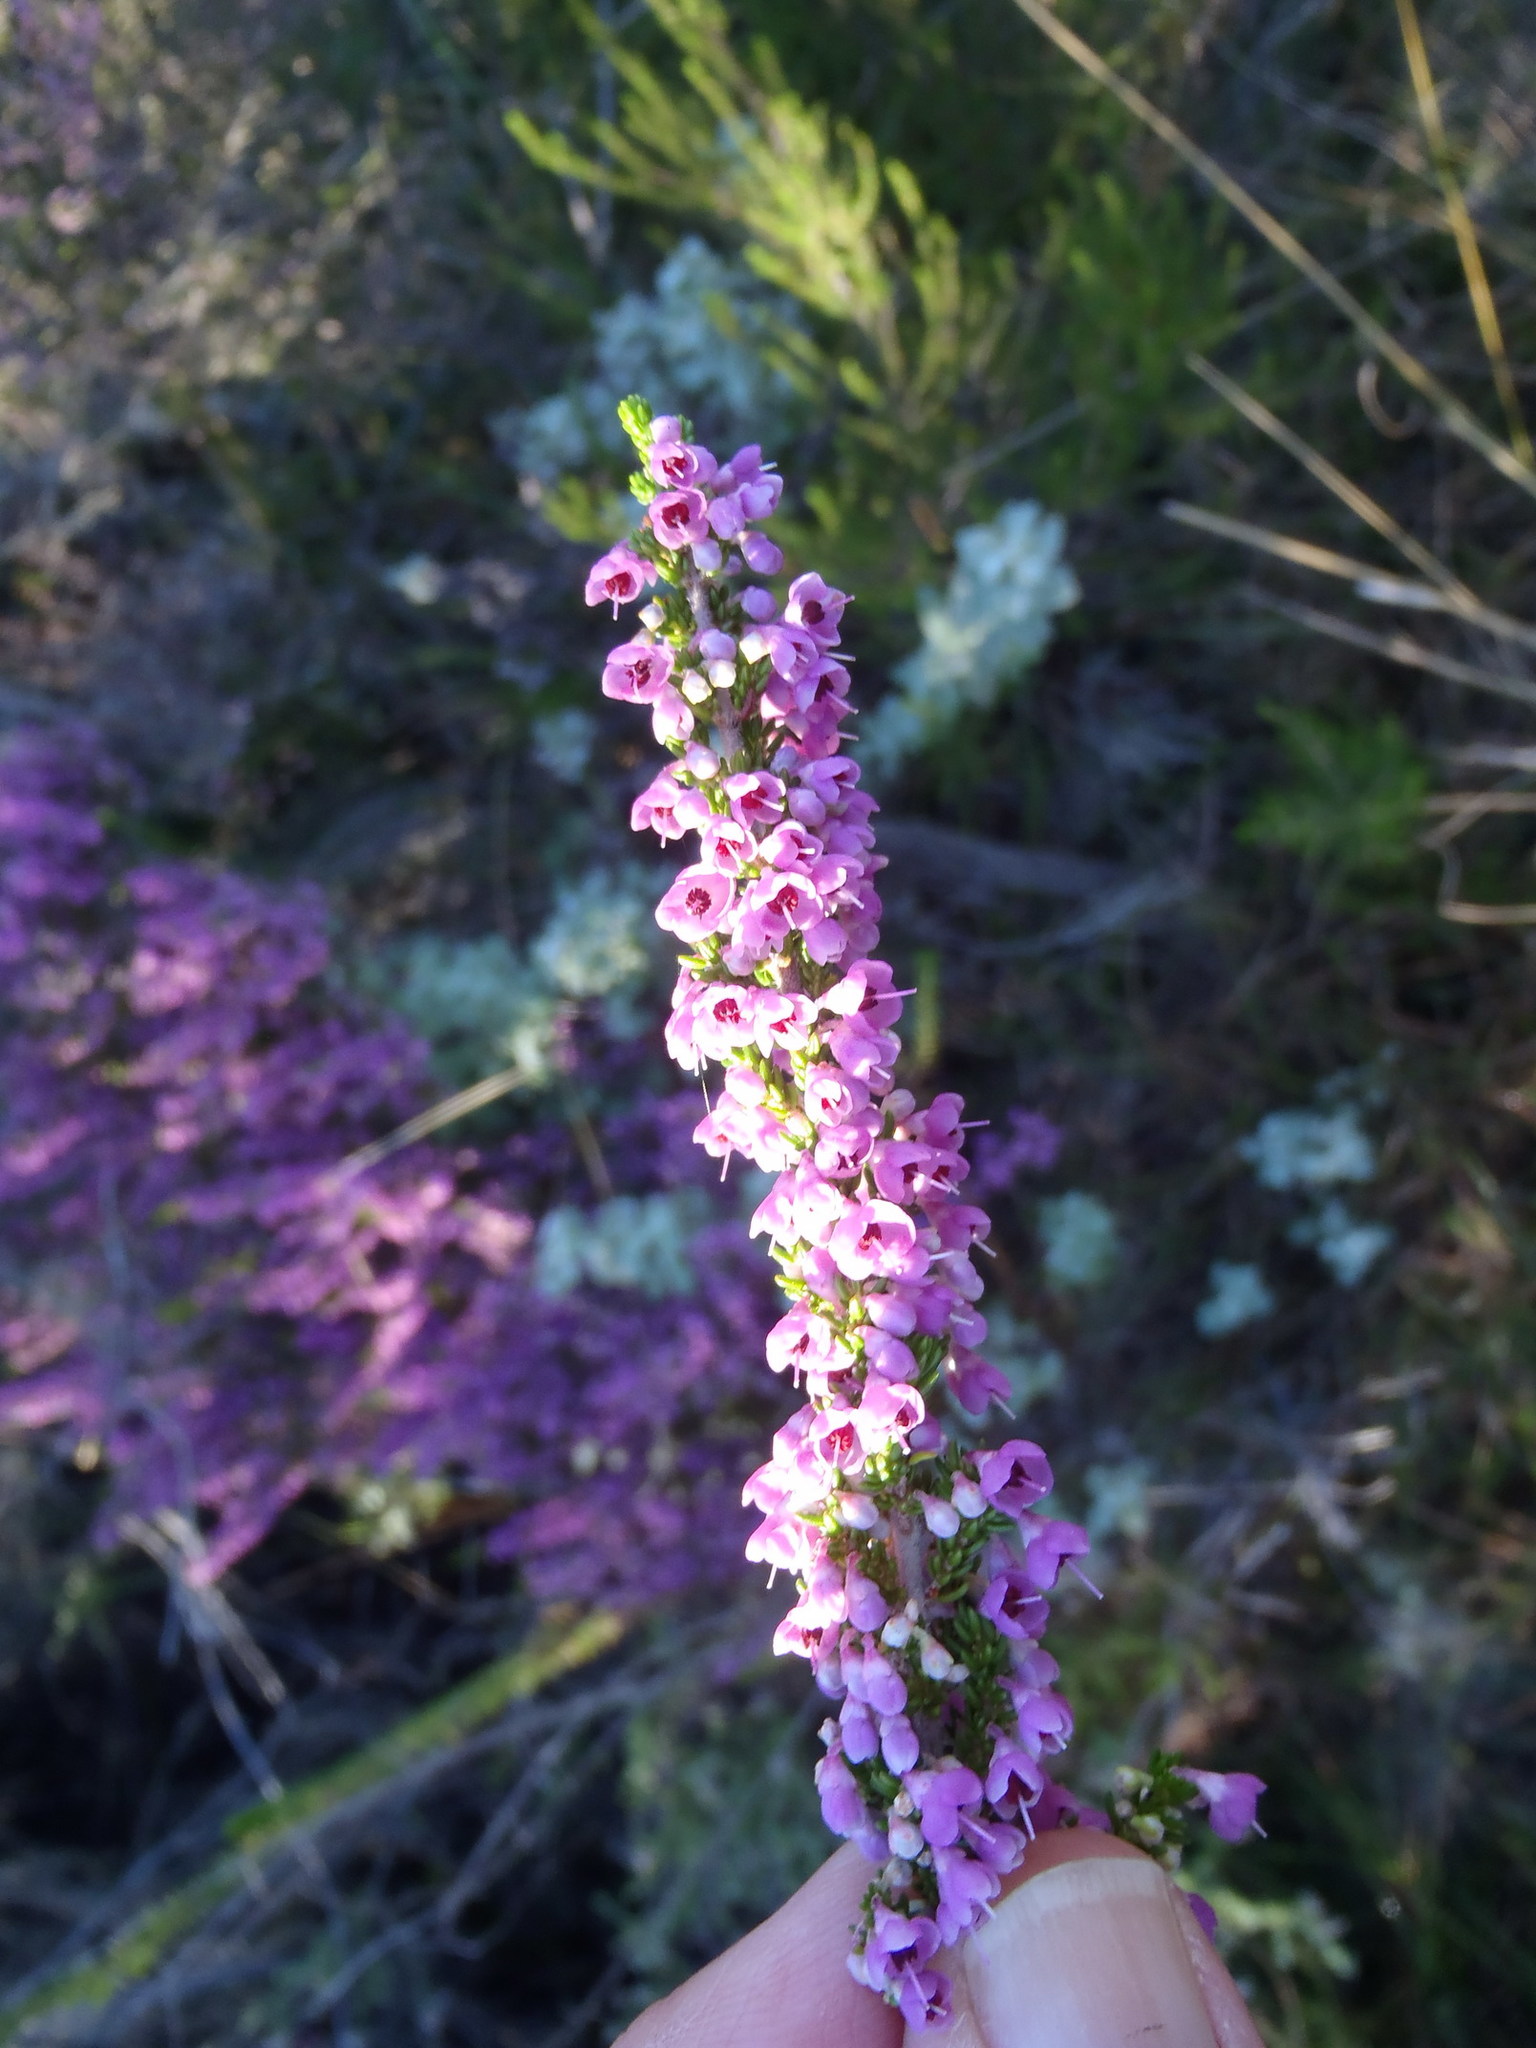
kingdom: Plantae
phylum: Tracheophyta
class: Magnoliopsida
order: Ericales
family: Ericaceae
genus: Erica
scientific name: Erica newdigatei
